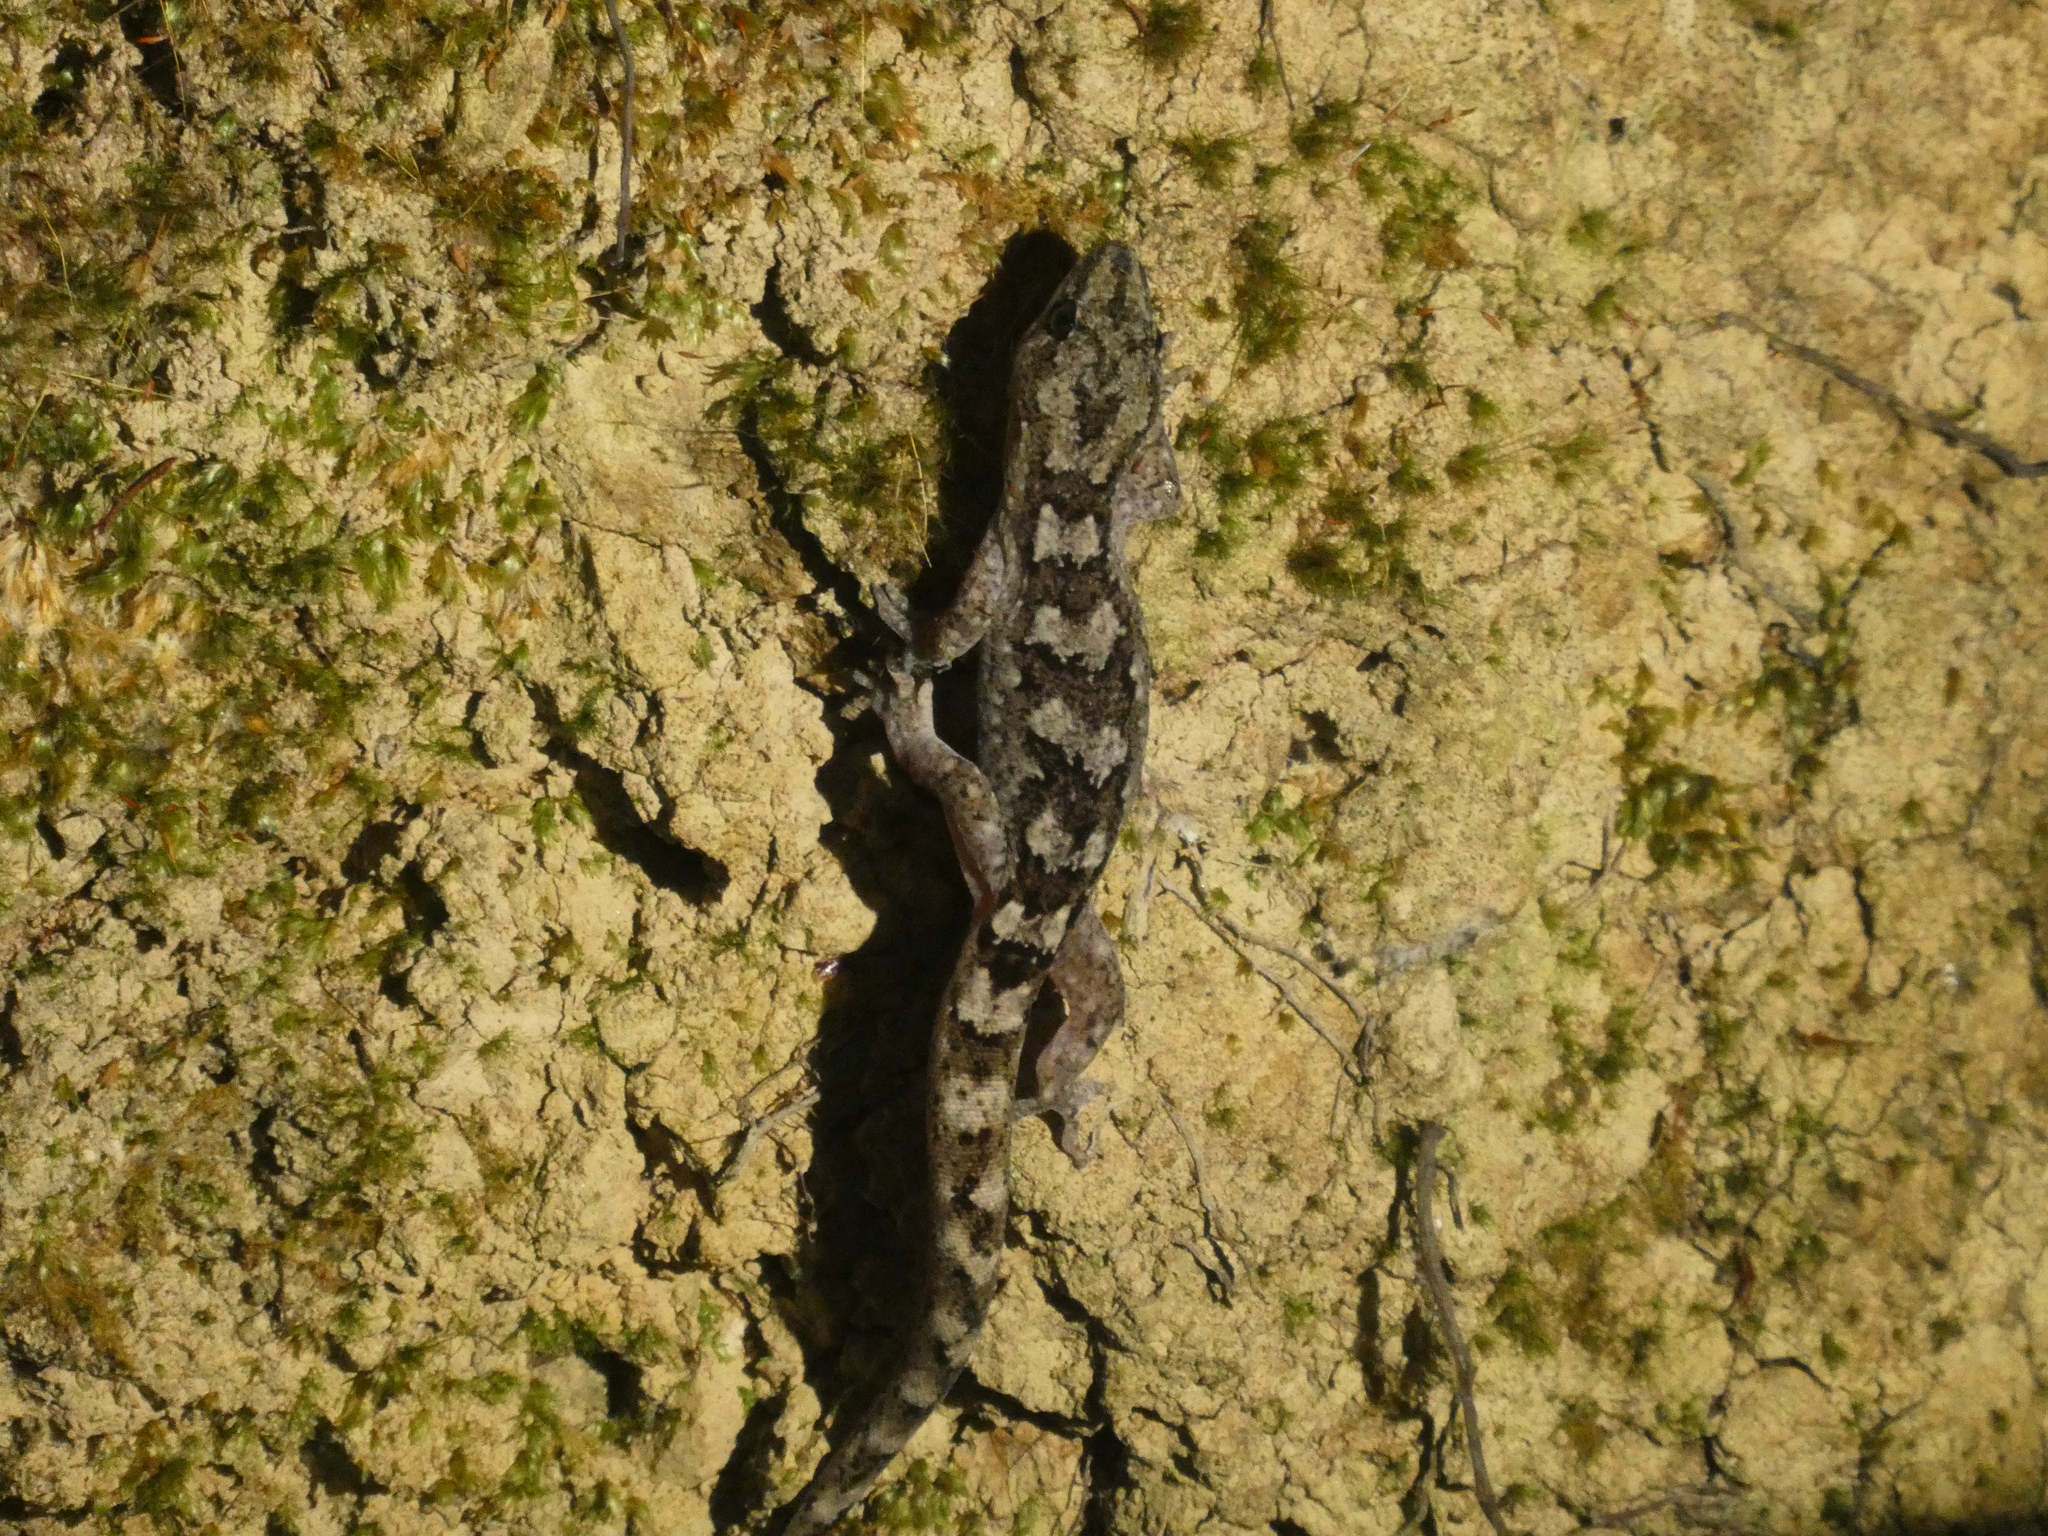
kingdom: Animalia
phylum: Chordata
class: Squamata
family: Diplodactylidae
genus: Woodworthia
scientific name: Woodworthia maculata
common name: Raukawa gecko
